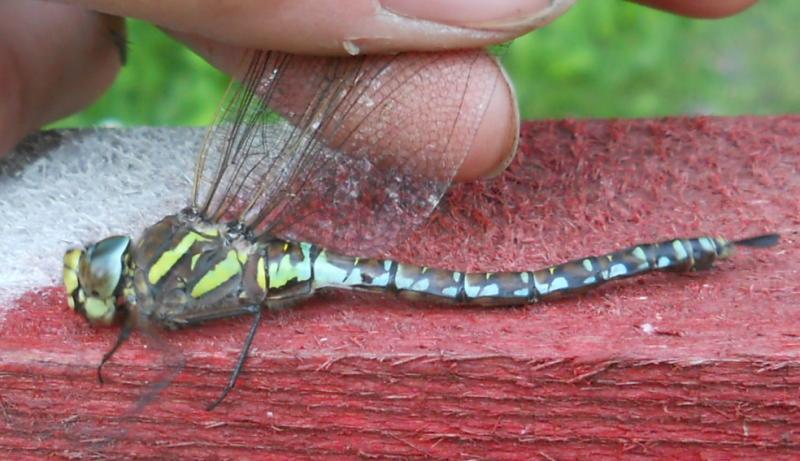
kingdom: Animalia
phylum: Arthropoda
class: Insecta
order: Odonata
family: Aeshnidae
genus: Aeshna
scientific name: Aeshna juncea
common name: Moorland hawker
